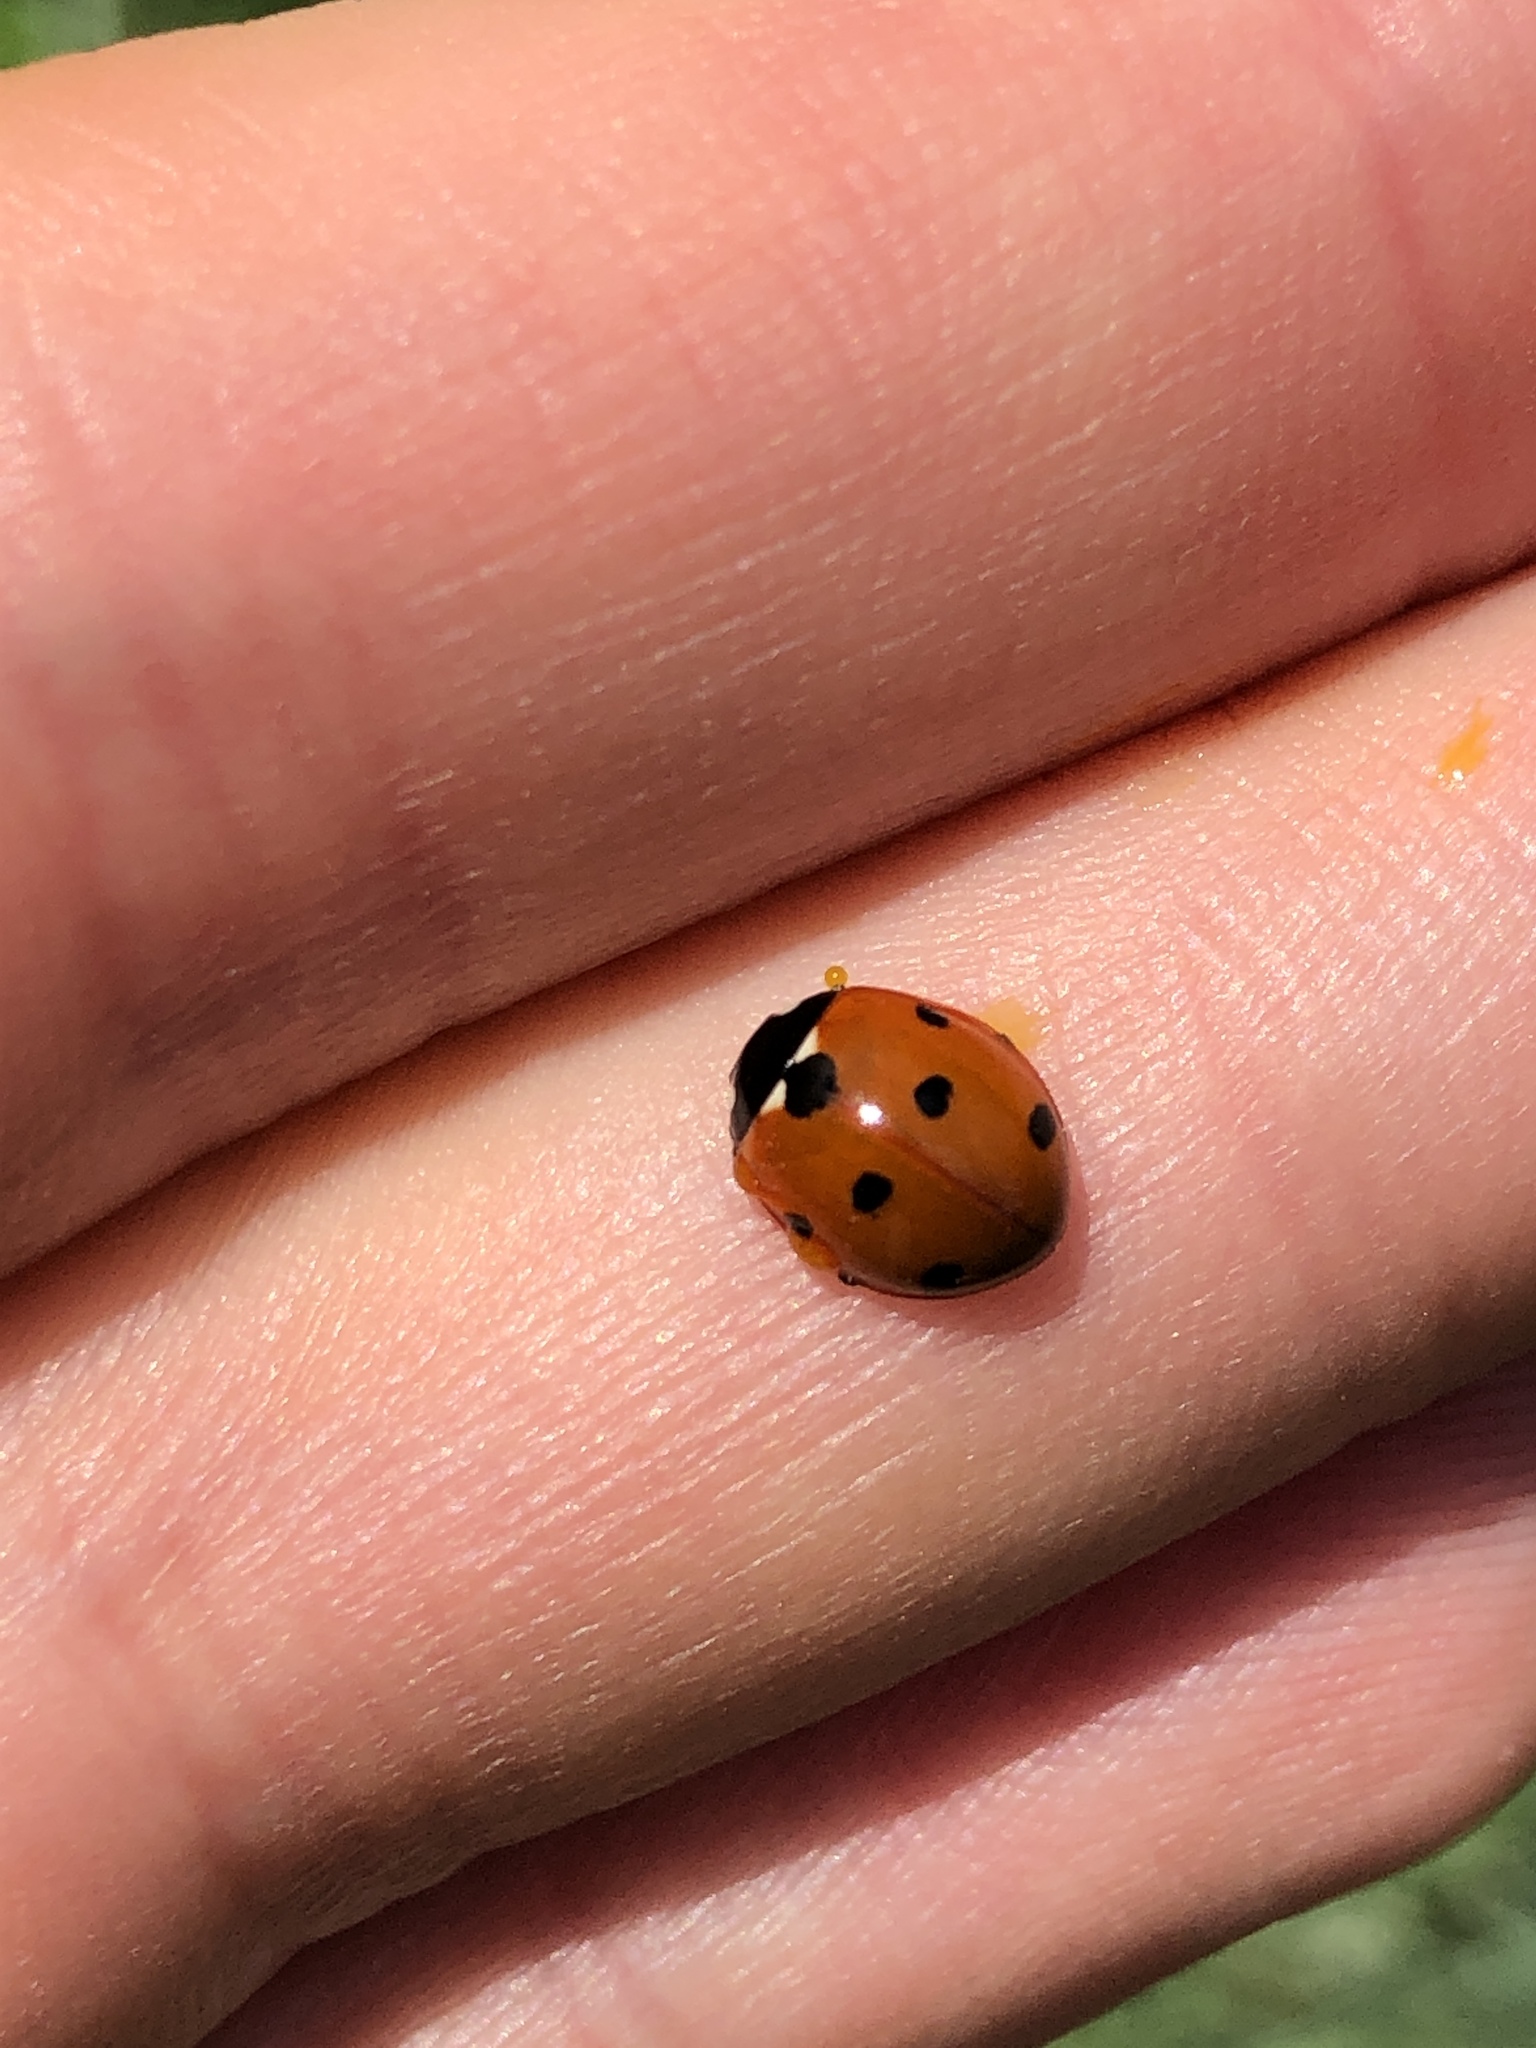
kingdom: Animalia
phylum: Arthropoda
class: Insecta
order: Coleoptera
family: Coccinellidae
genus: Coccinella
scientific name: Coccinella septempunctata
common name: Sevenspotted lady beetle
